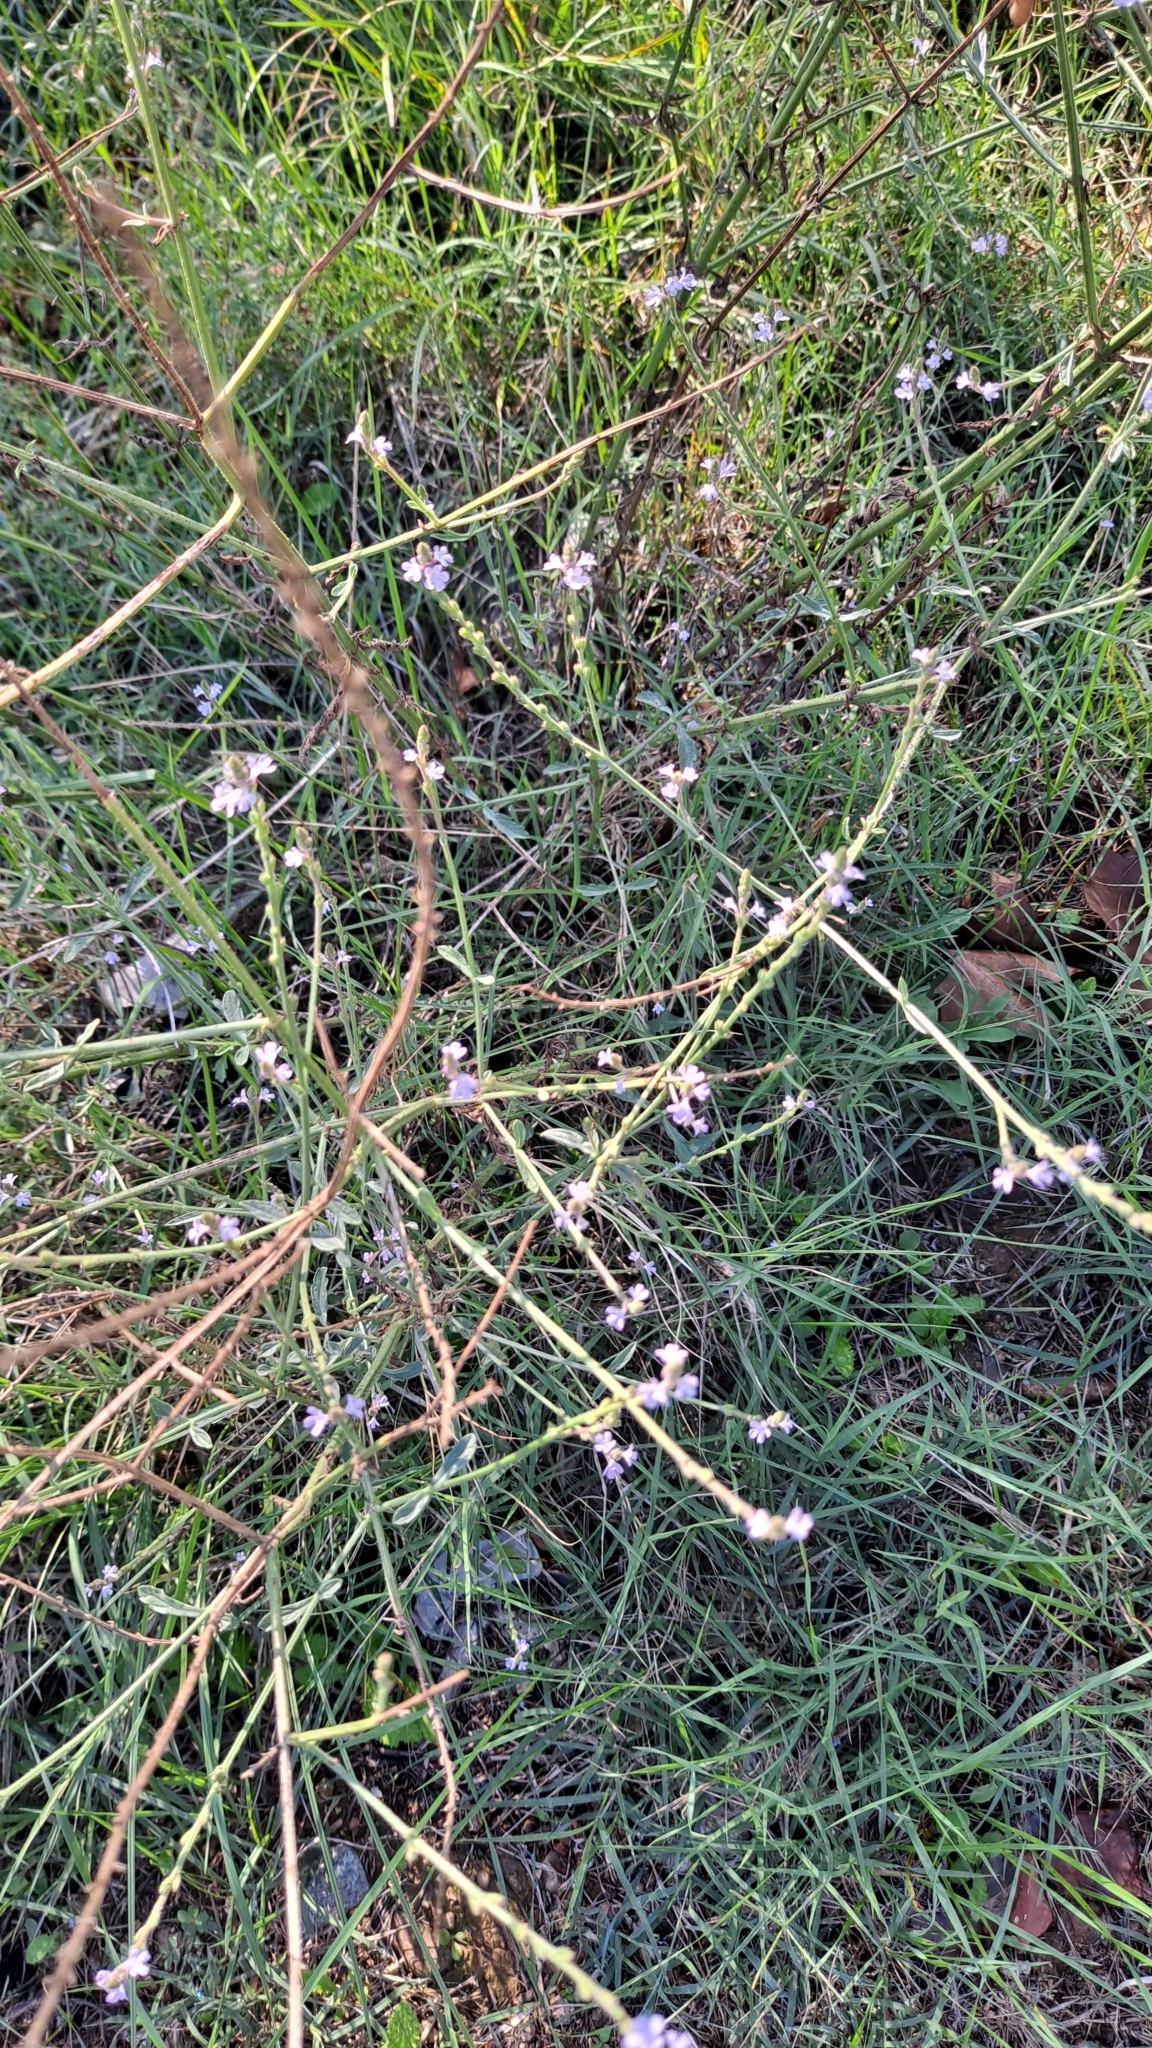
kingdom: Plantae
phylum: Tracheophyta
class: Magnoliopsida
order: Lamiales
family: Verbenaceae
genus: Verbena
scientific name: Verbena officinalis
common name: Vervain
